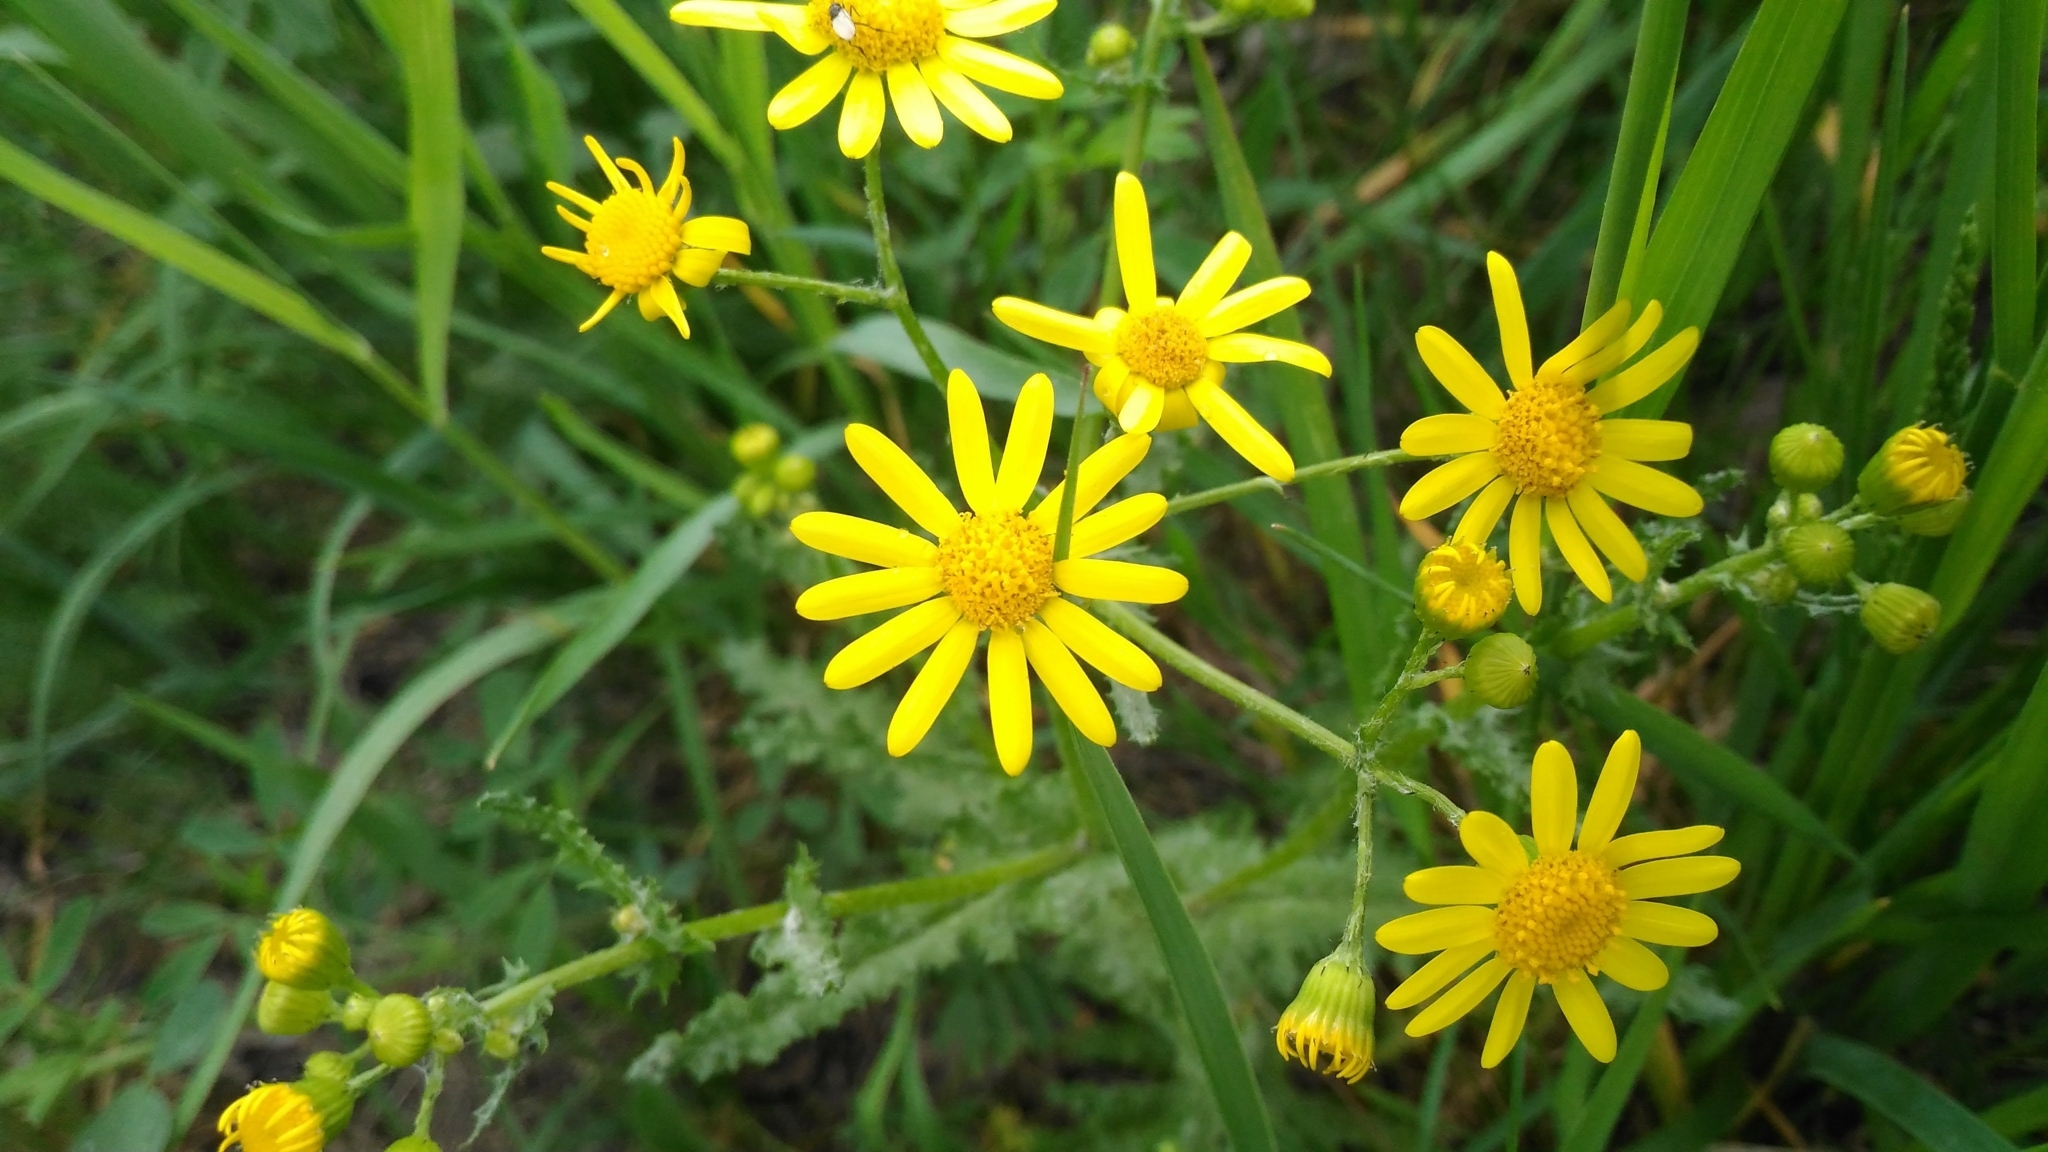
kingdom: Plantae
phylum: Tracheophyta
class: Magnoliopsida
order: Asterales
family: Asteraceae
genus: Senecio
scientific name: Senecio vernalis
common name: Eastern groundsel
